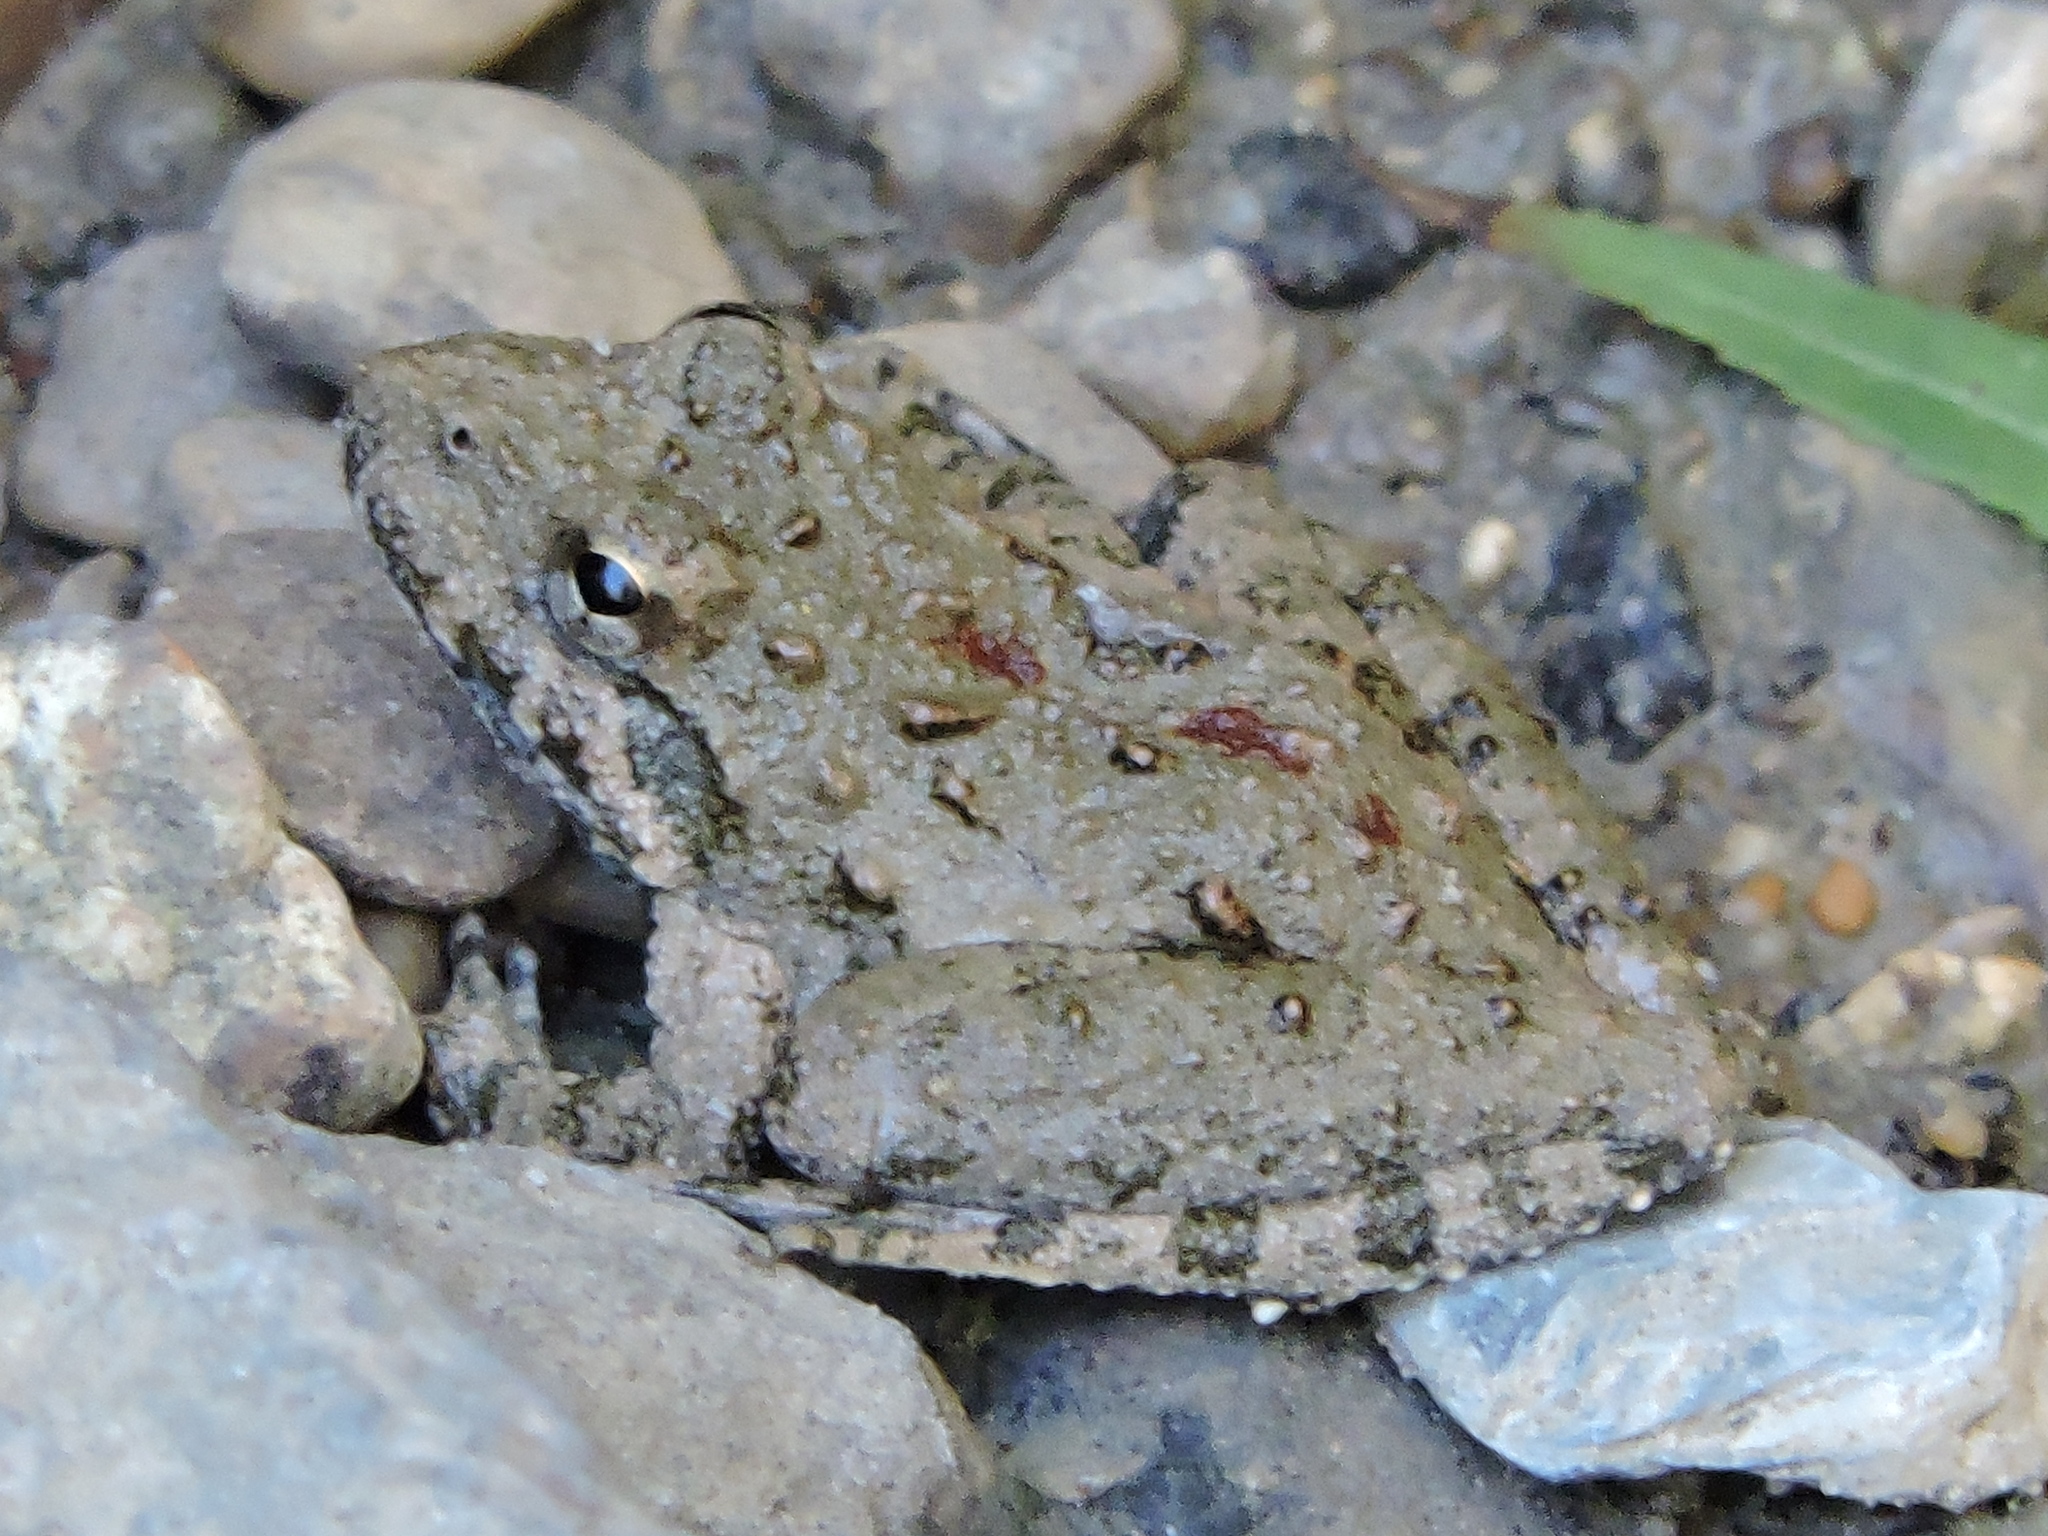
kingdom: Animalia
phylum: Chordata
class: Amphibia
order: Anura
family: Hylidae
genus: Acris
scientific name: Acris blanchardi
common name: Blanchard's cricket frog
